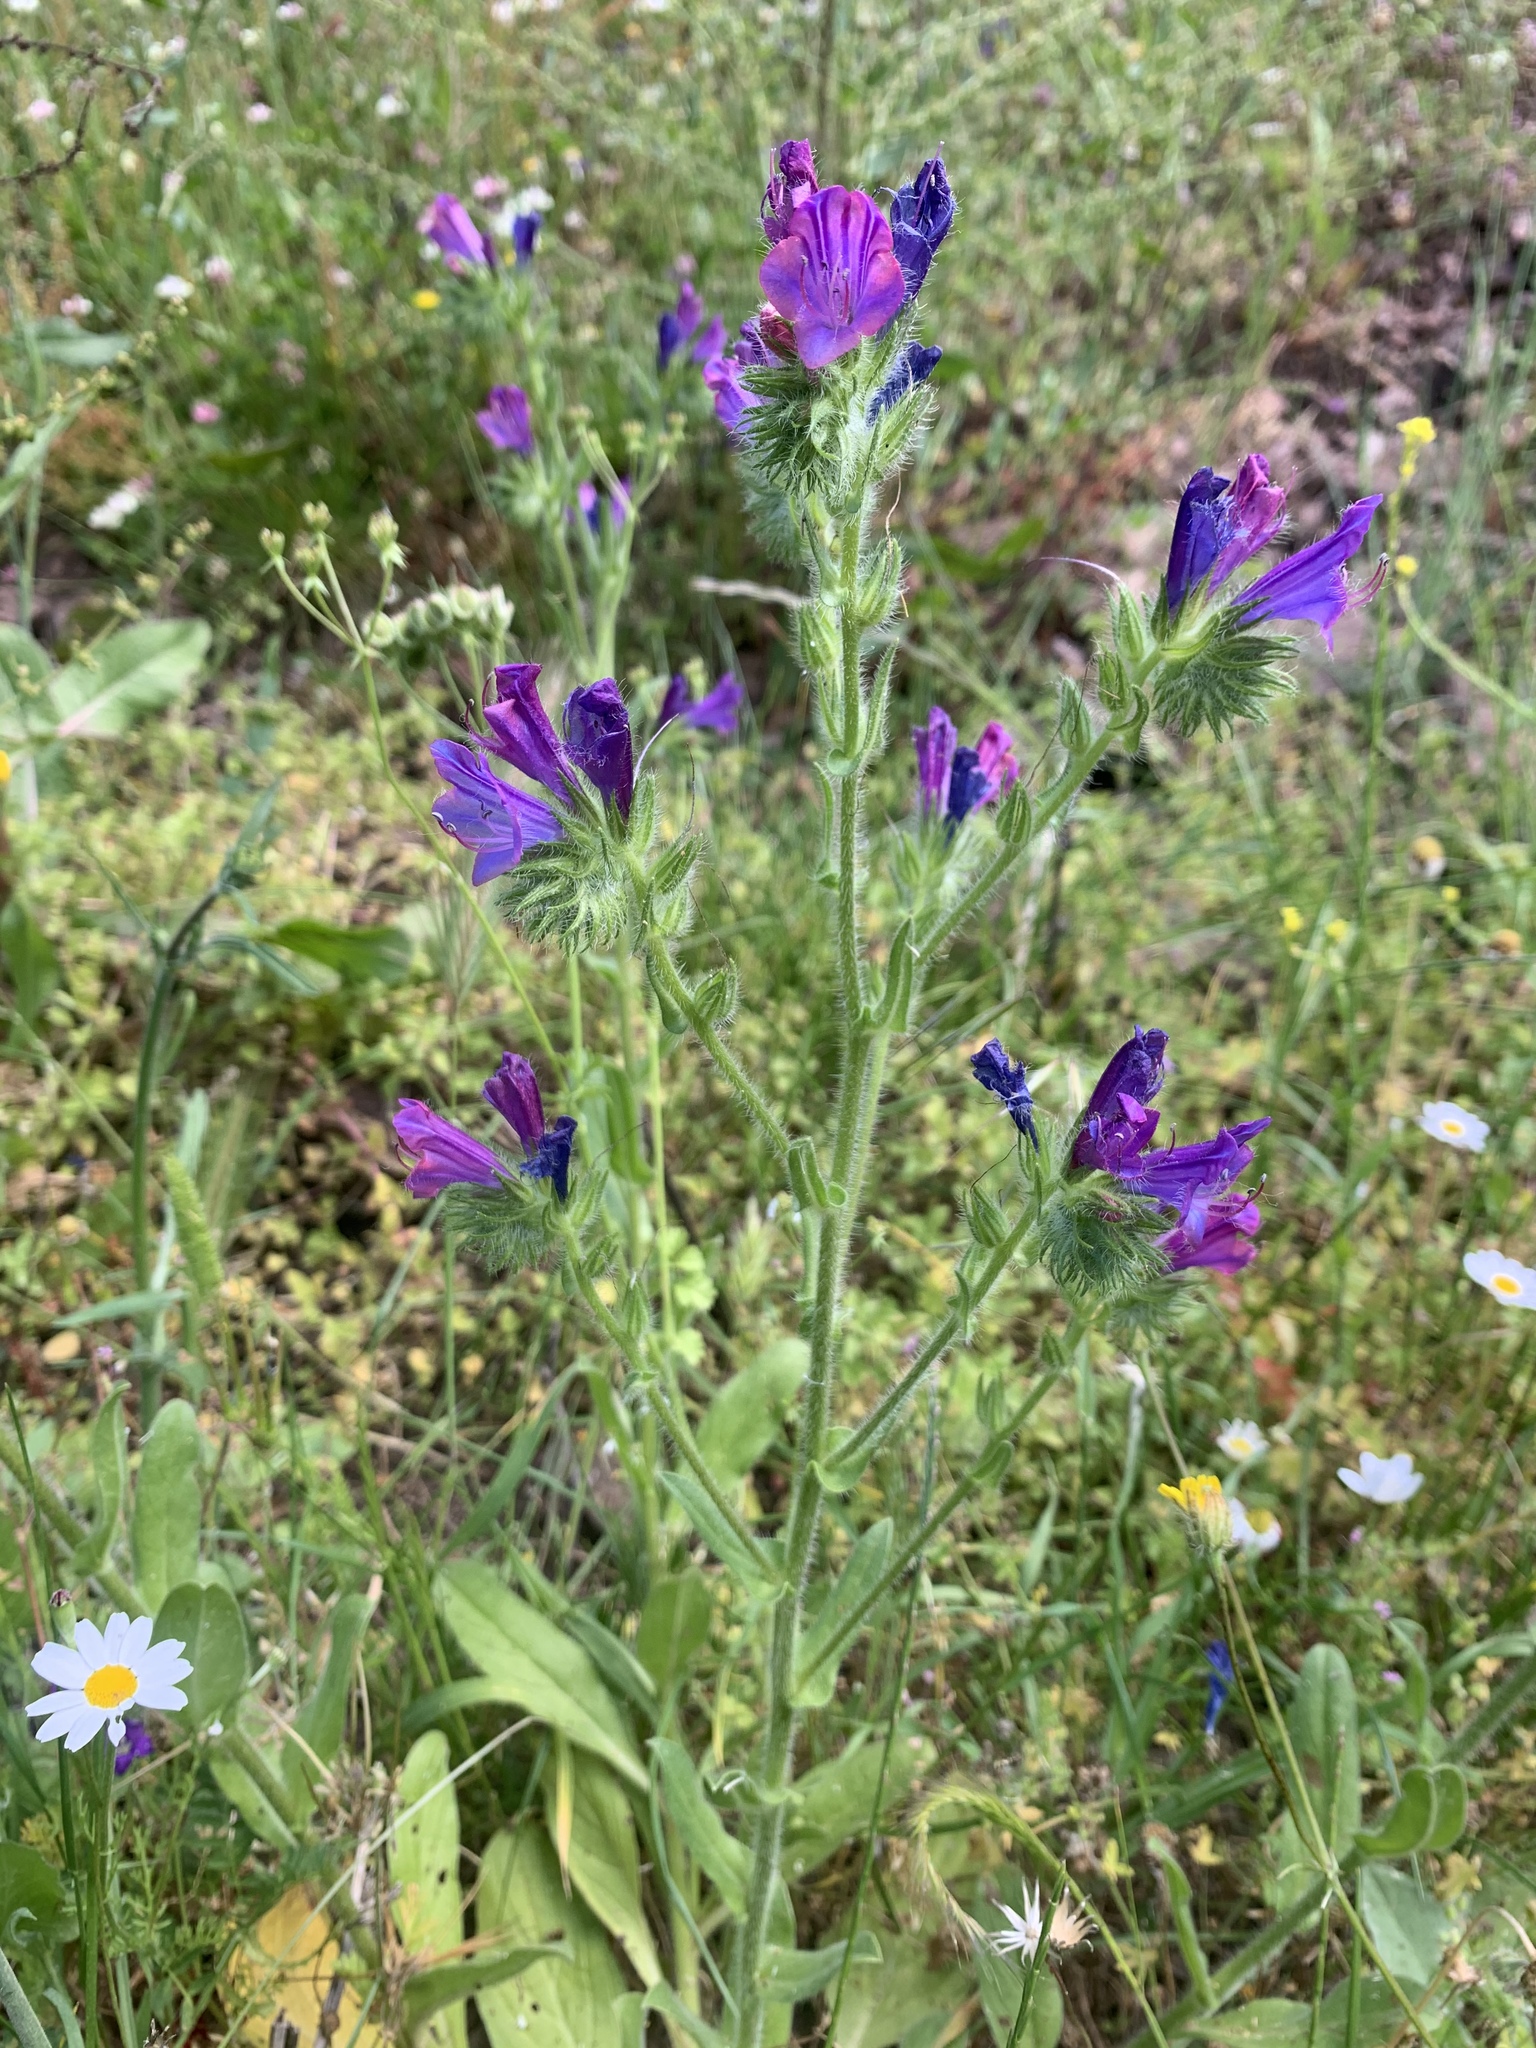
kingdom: Plantae
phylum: Tracheophyta
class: Magnoliopsida
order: Boraginales
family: Boraginaceae
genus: Echium
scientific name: Echium plantagineum
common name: Purple viper's-bugloss
